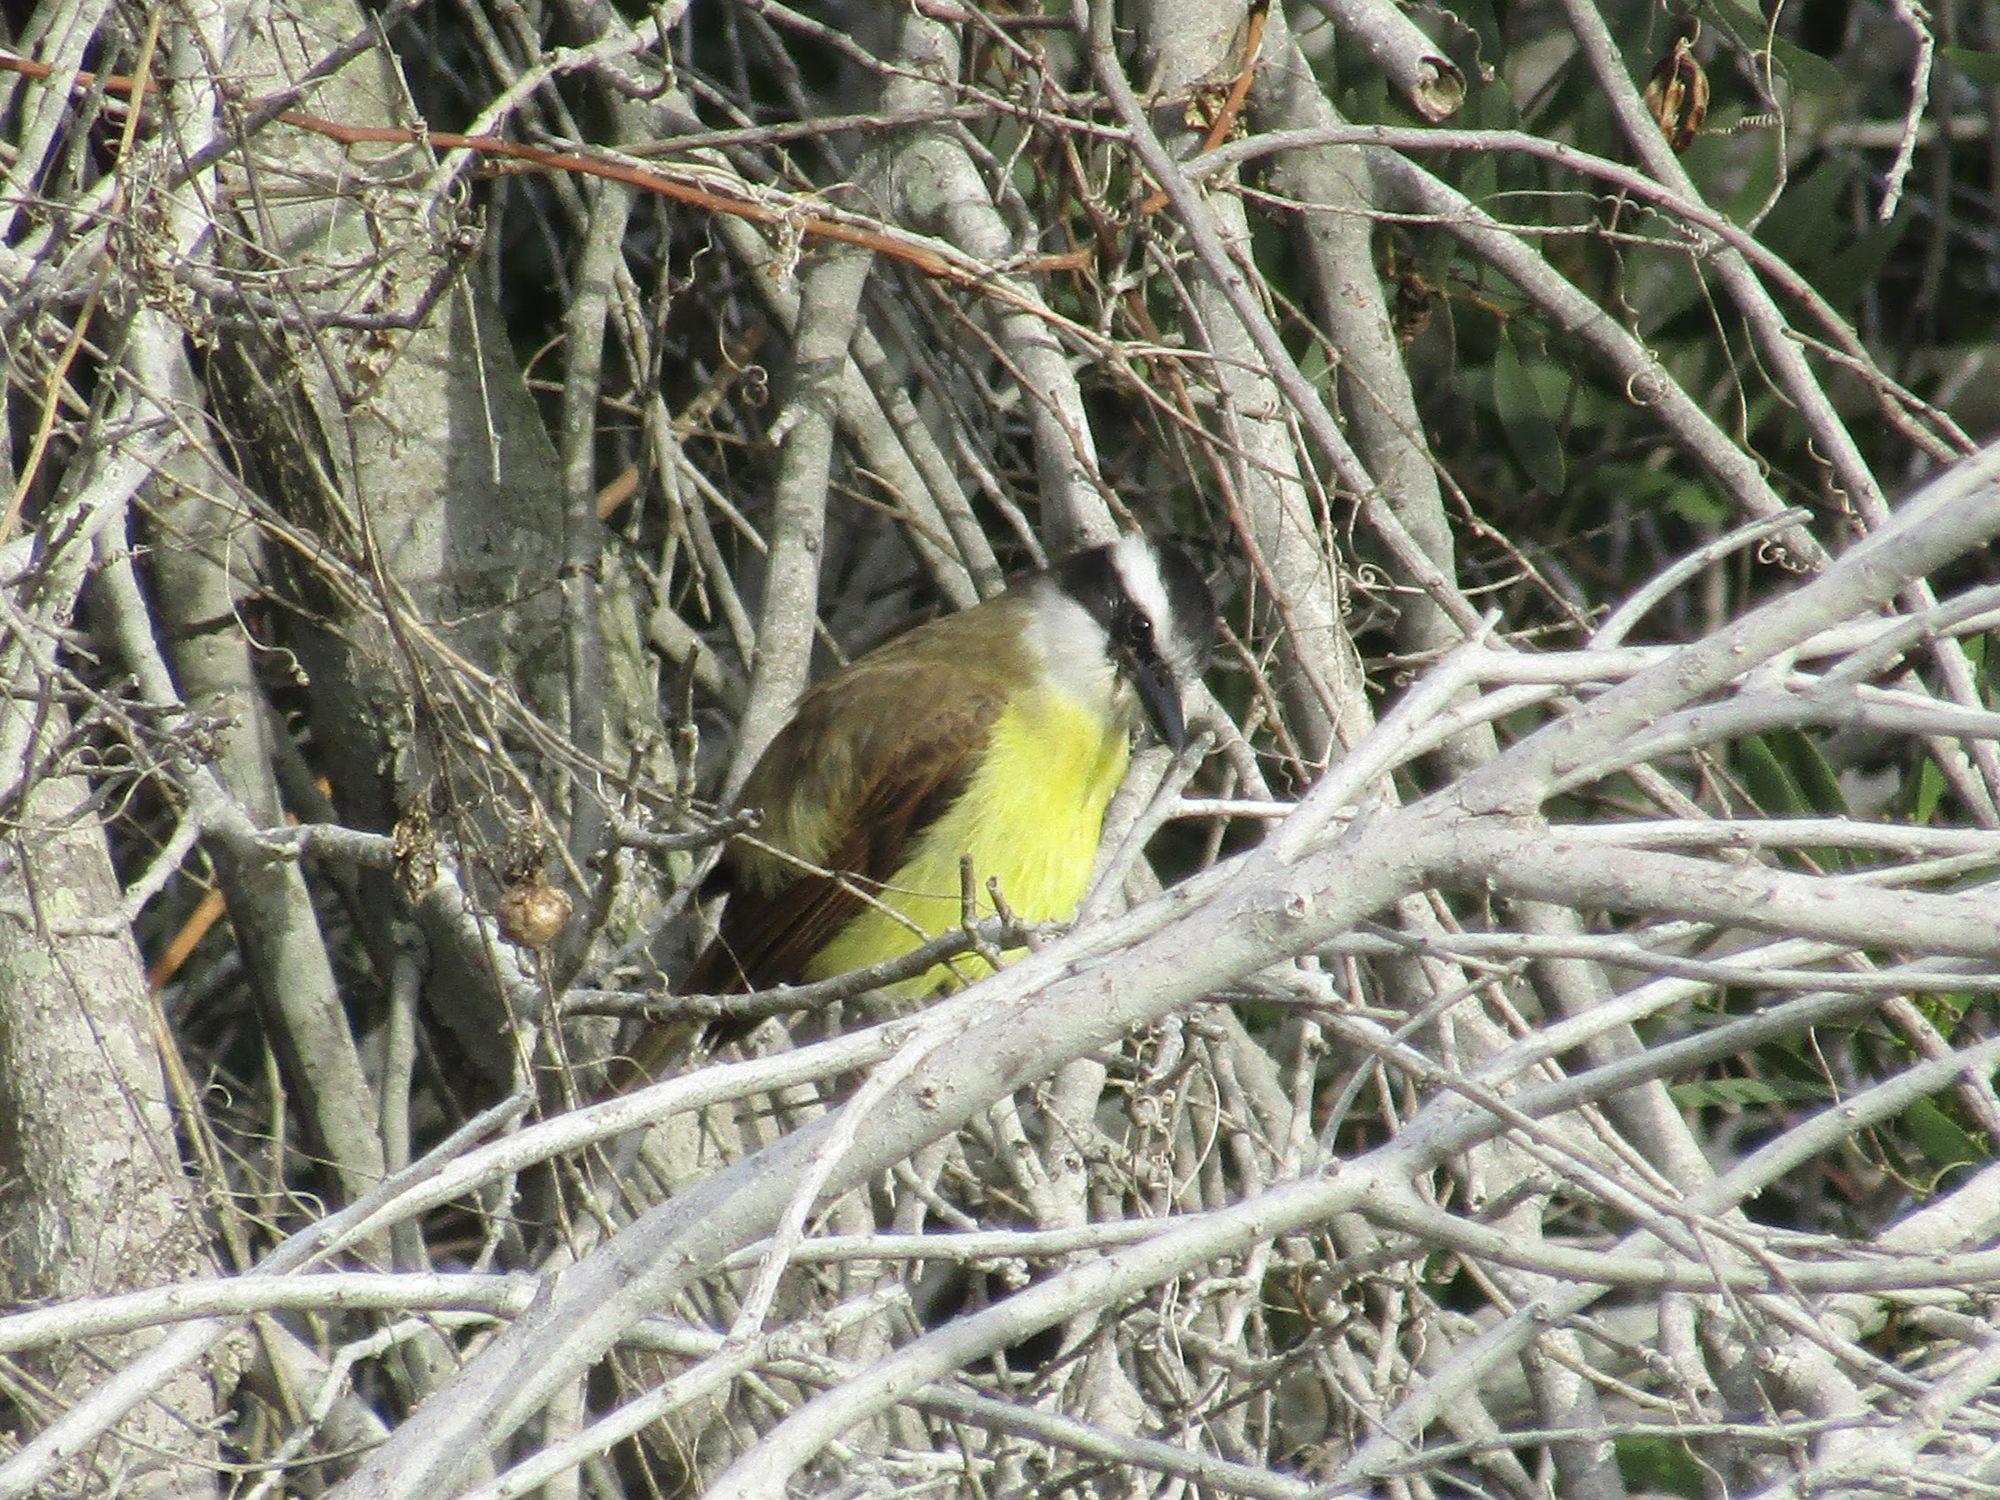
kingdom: Animalia
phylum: Chordata
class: Aves
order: Passeriformes
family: Tyrannidae
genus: Pitangus
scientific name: Pitangus sulphuratus
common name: Great kiskadee
